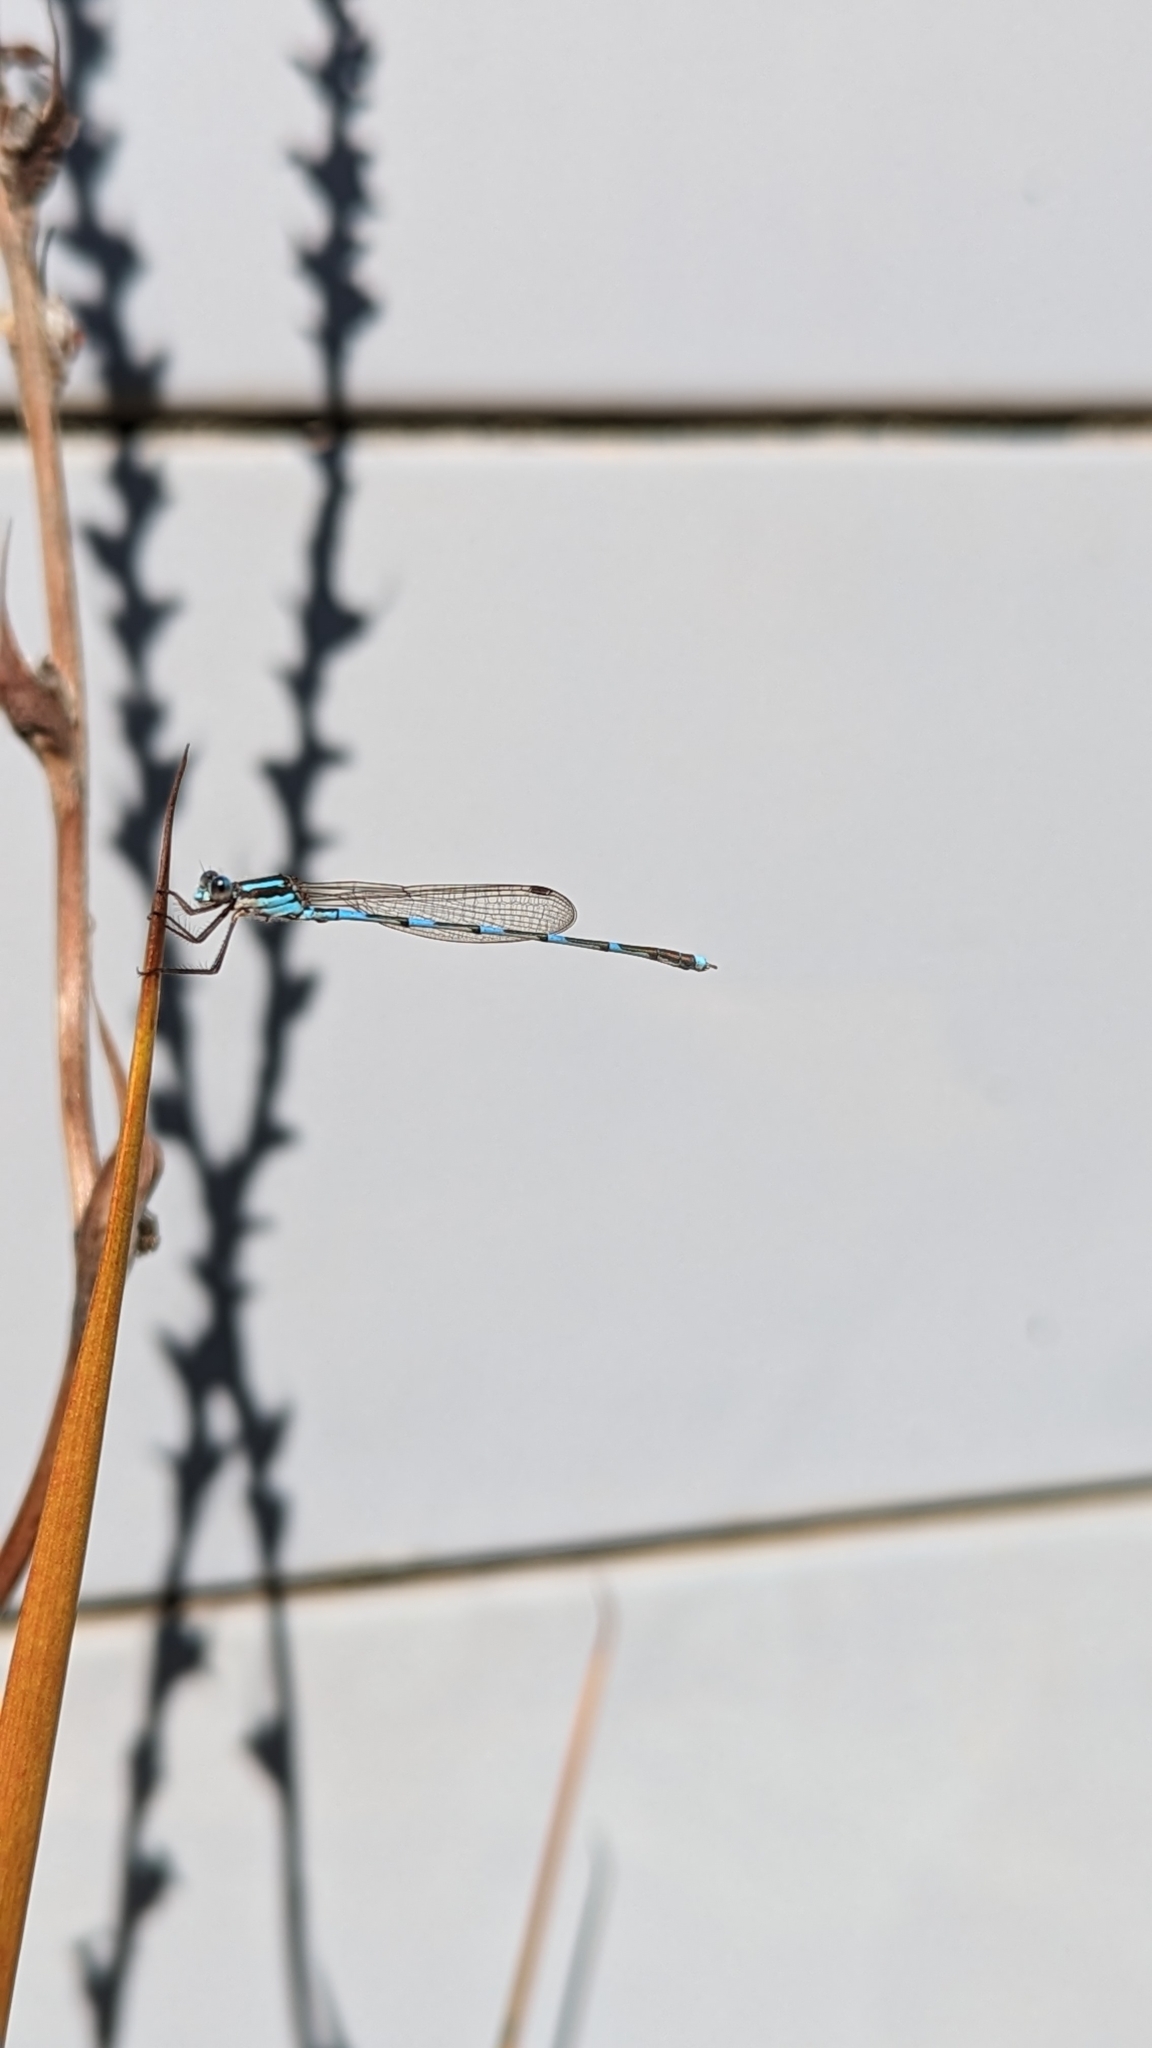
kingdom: Animalia
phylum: Arthropoda
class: Insecta
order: Odonata
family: Lestidae
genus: Austrolestes
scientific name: Austrolestes leda
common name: Wandering ringtail
